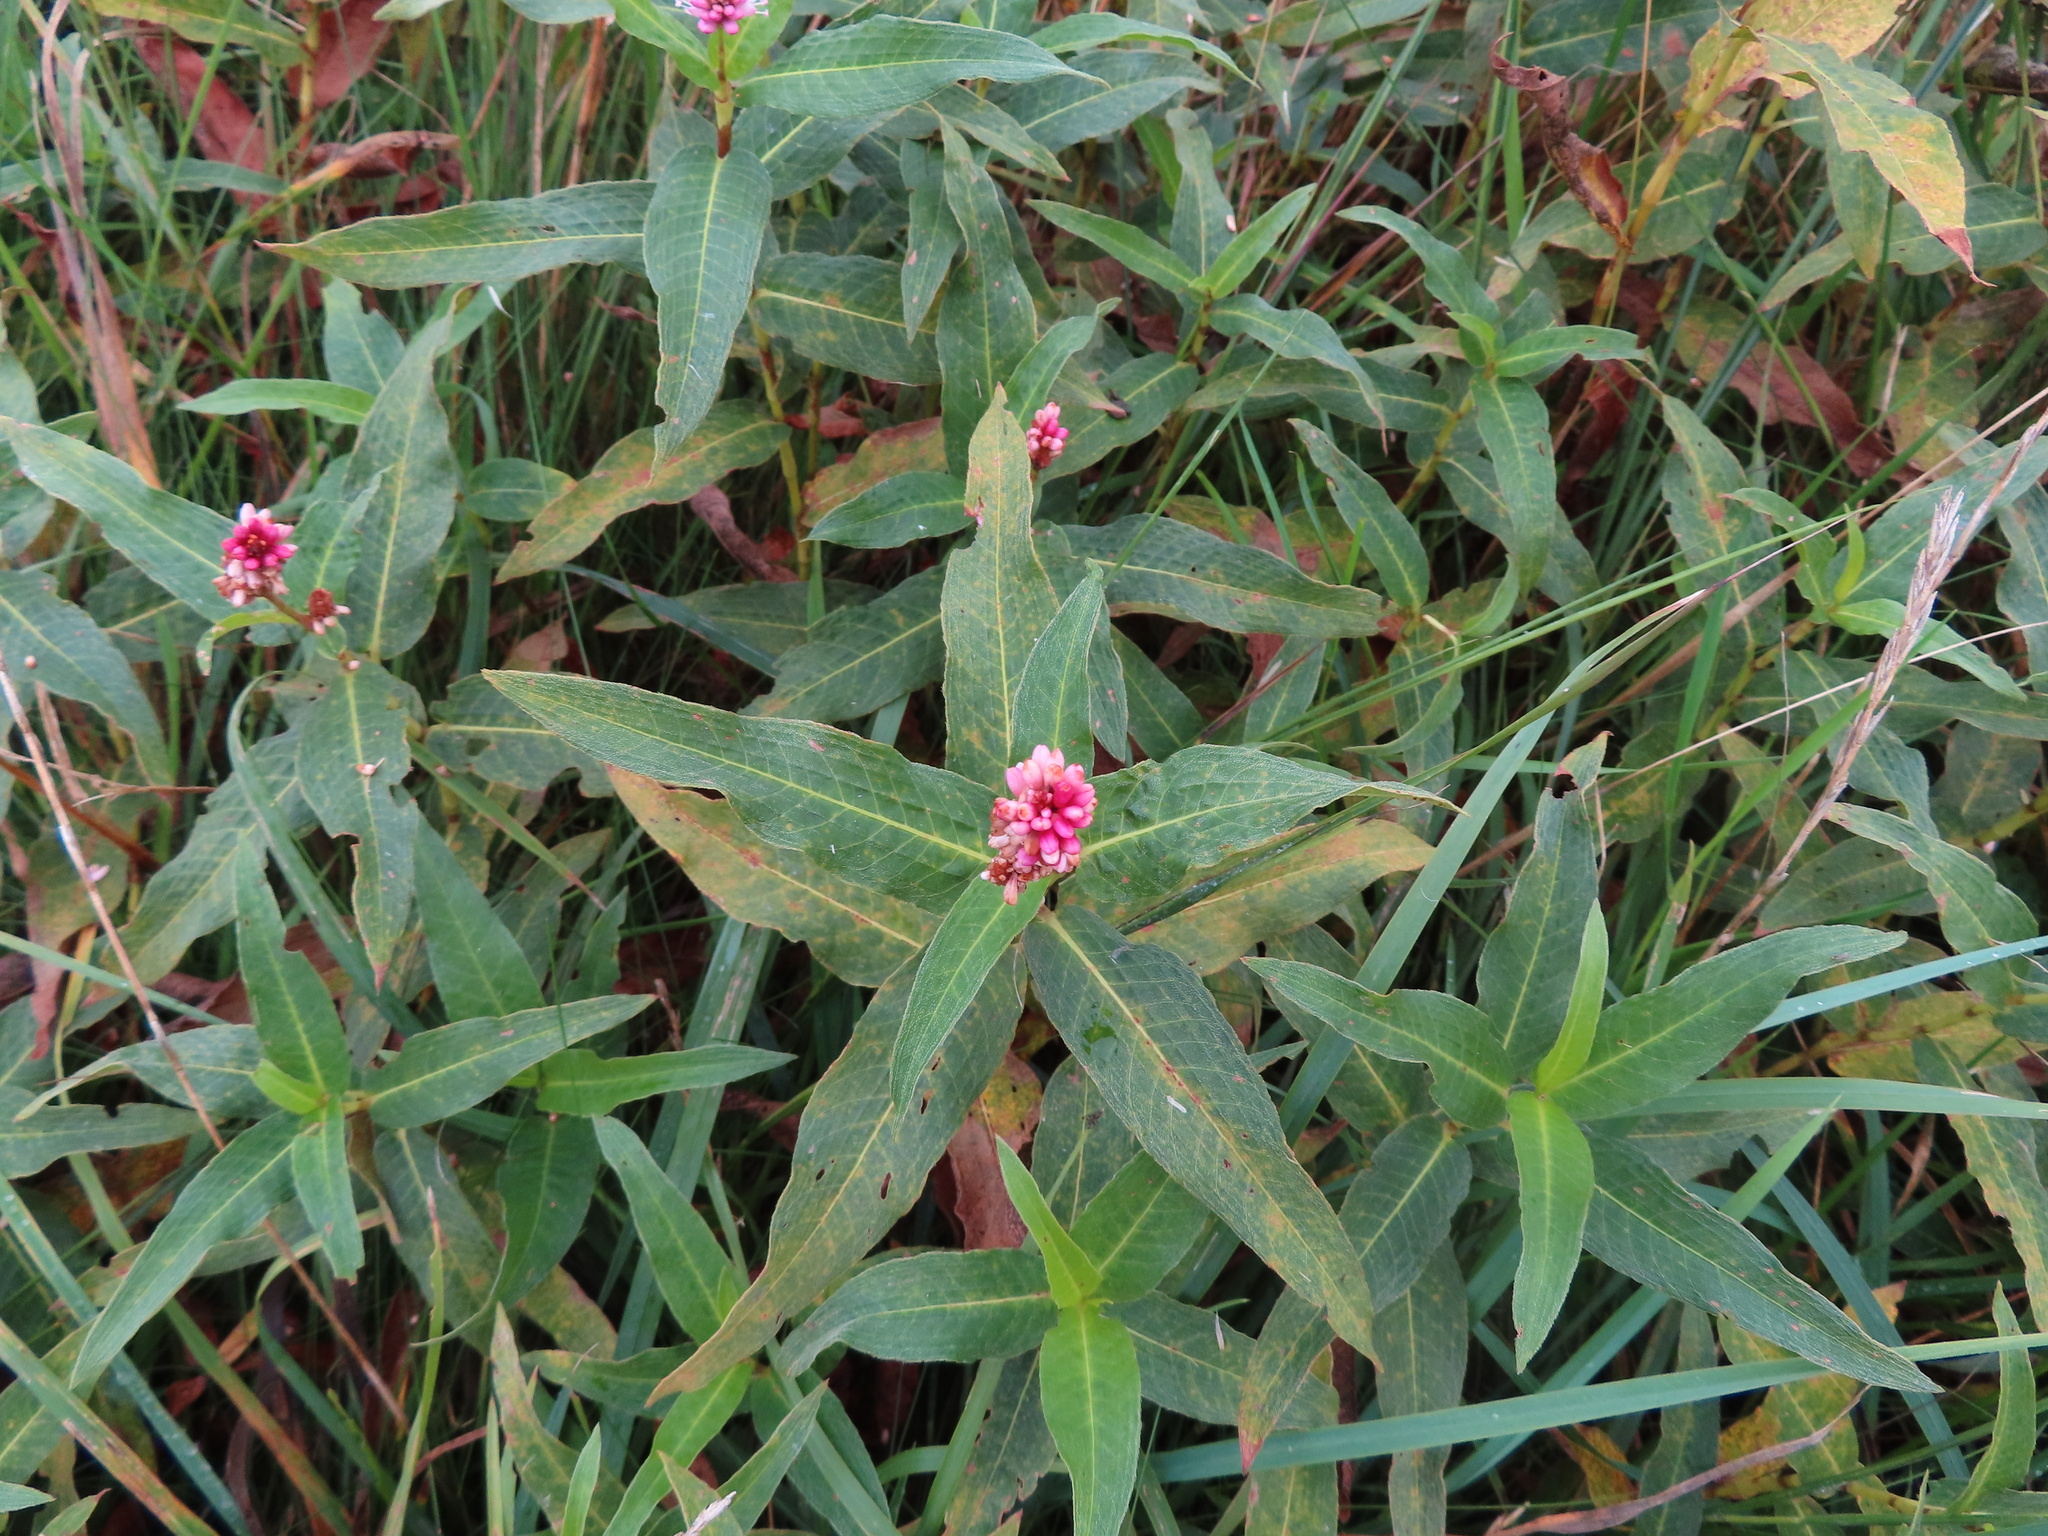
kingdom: Plantae
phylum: Tracheophyta
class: Magnoliopsida
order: Caryophyllales
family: Polygonaceae
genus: Persicaria
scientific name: Persicaria amphibia
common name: Amphibious bistort
